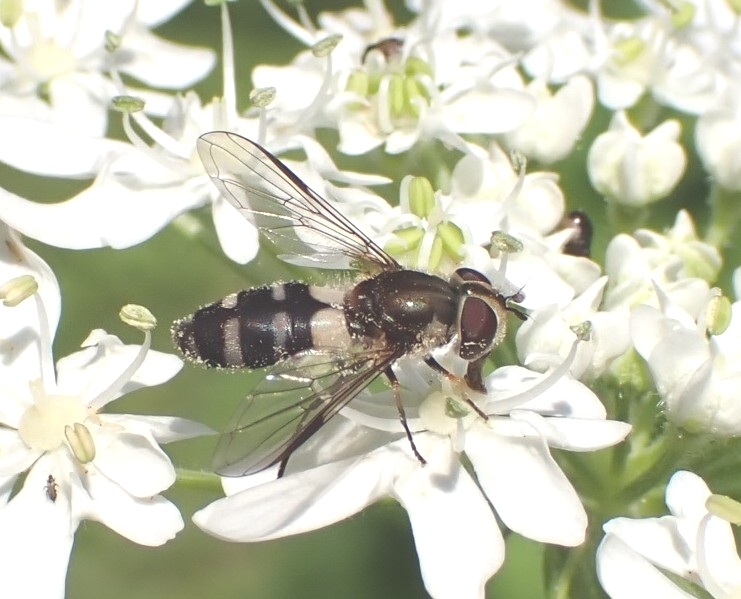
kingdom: Animalia
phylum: Arthropoda
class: Insecta
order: Diptera
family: Syrphidae
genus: Cheilosia
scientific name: Cheilosia illustrata
